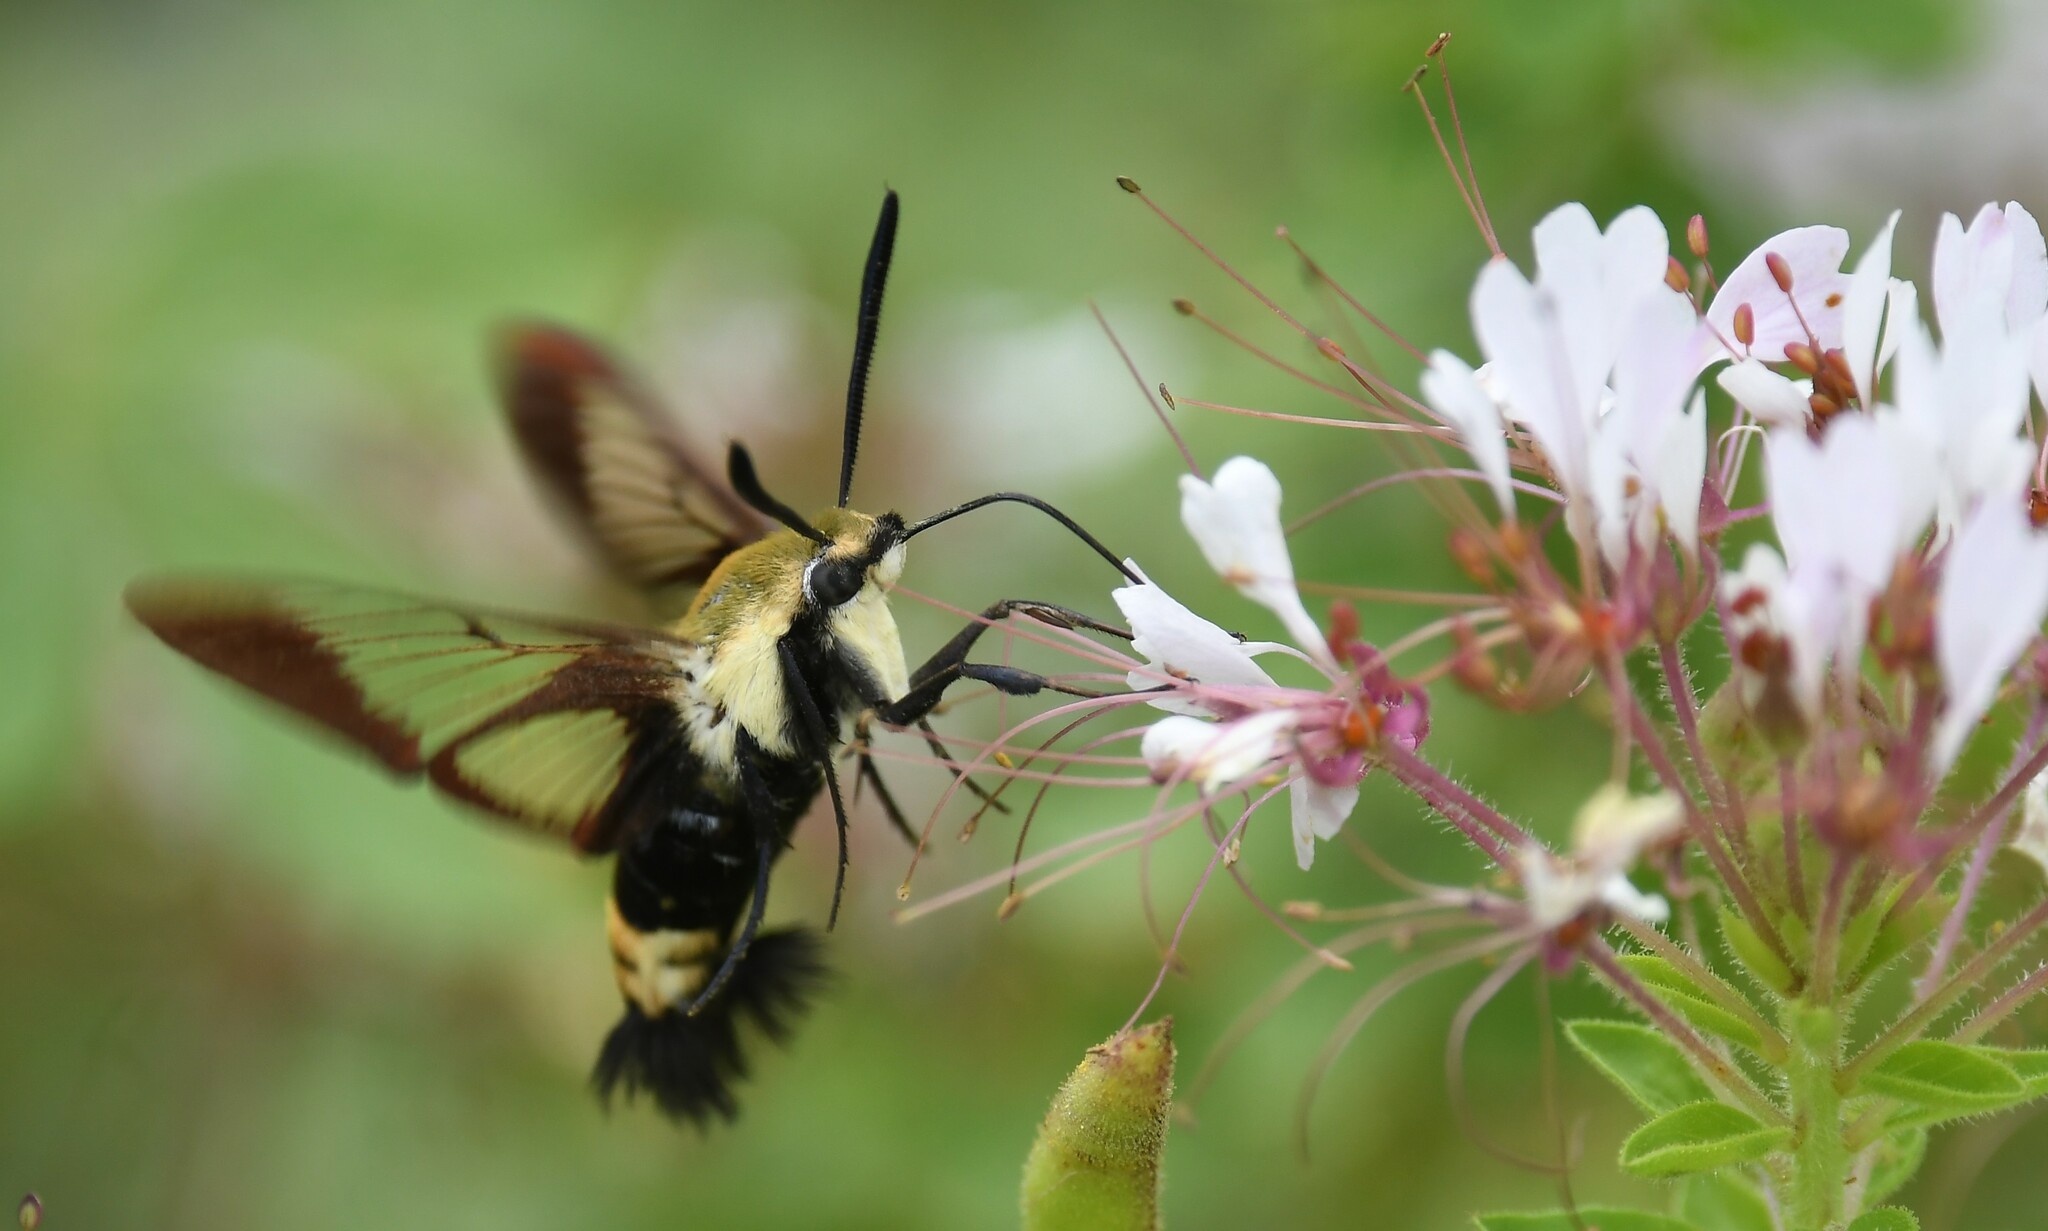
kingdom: Animalia
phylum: Arthropoda
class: Insecta
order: Lepidoptera
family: Sphingidae
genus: Hemaris
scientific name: Hemaris diffinis
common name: Bumblebee moth
